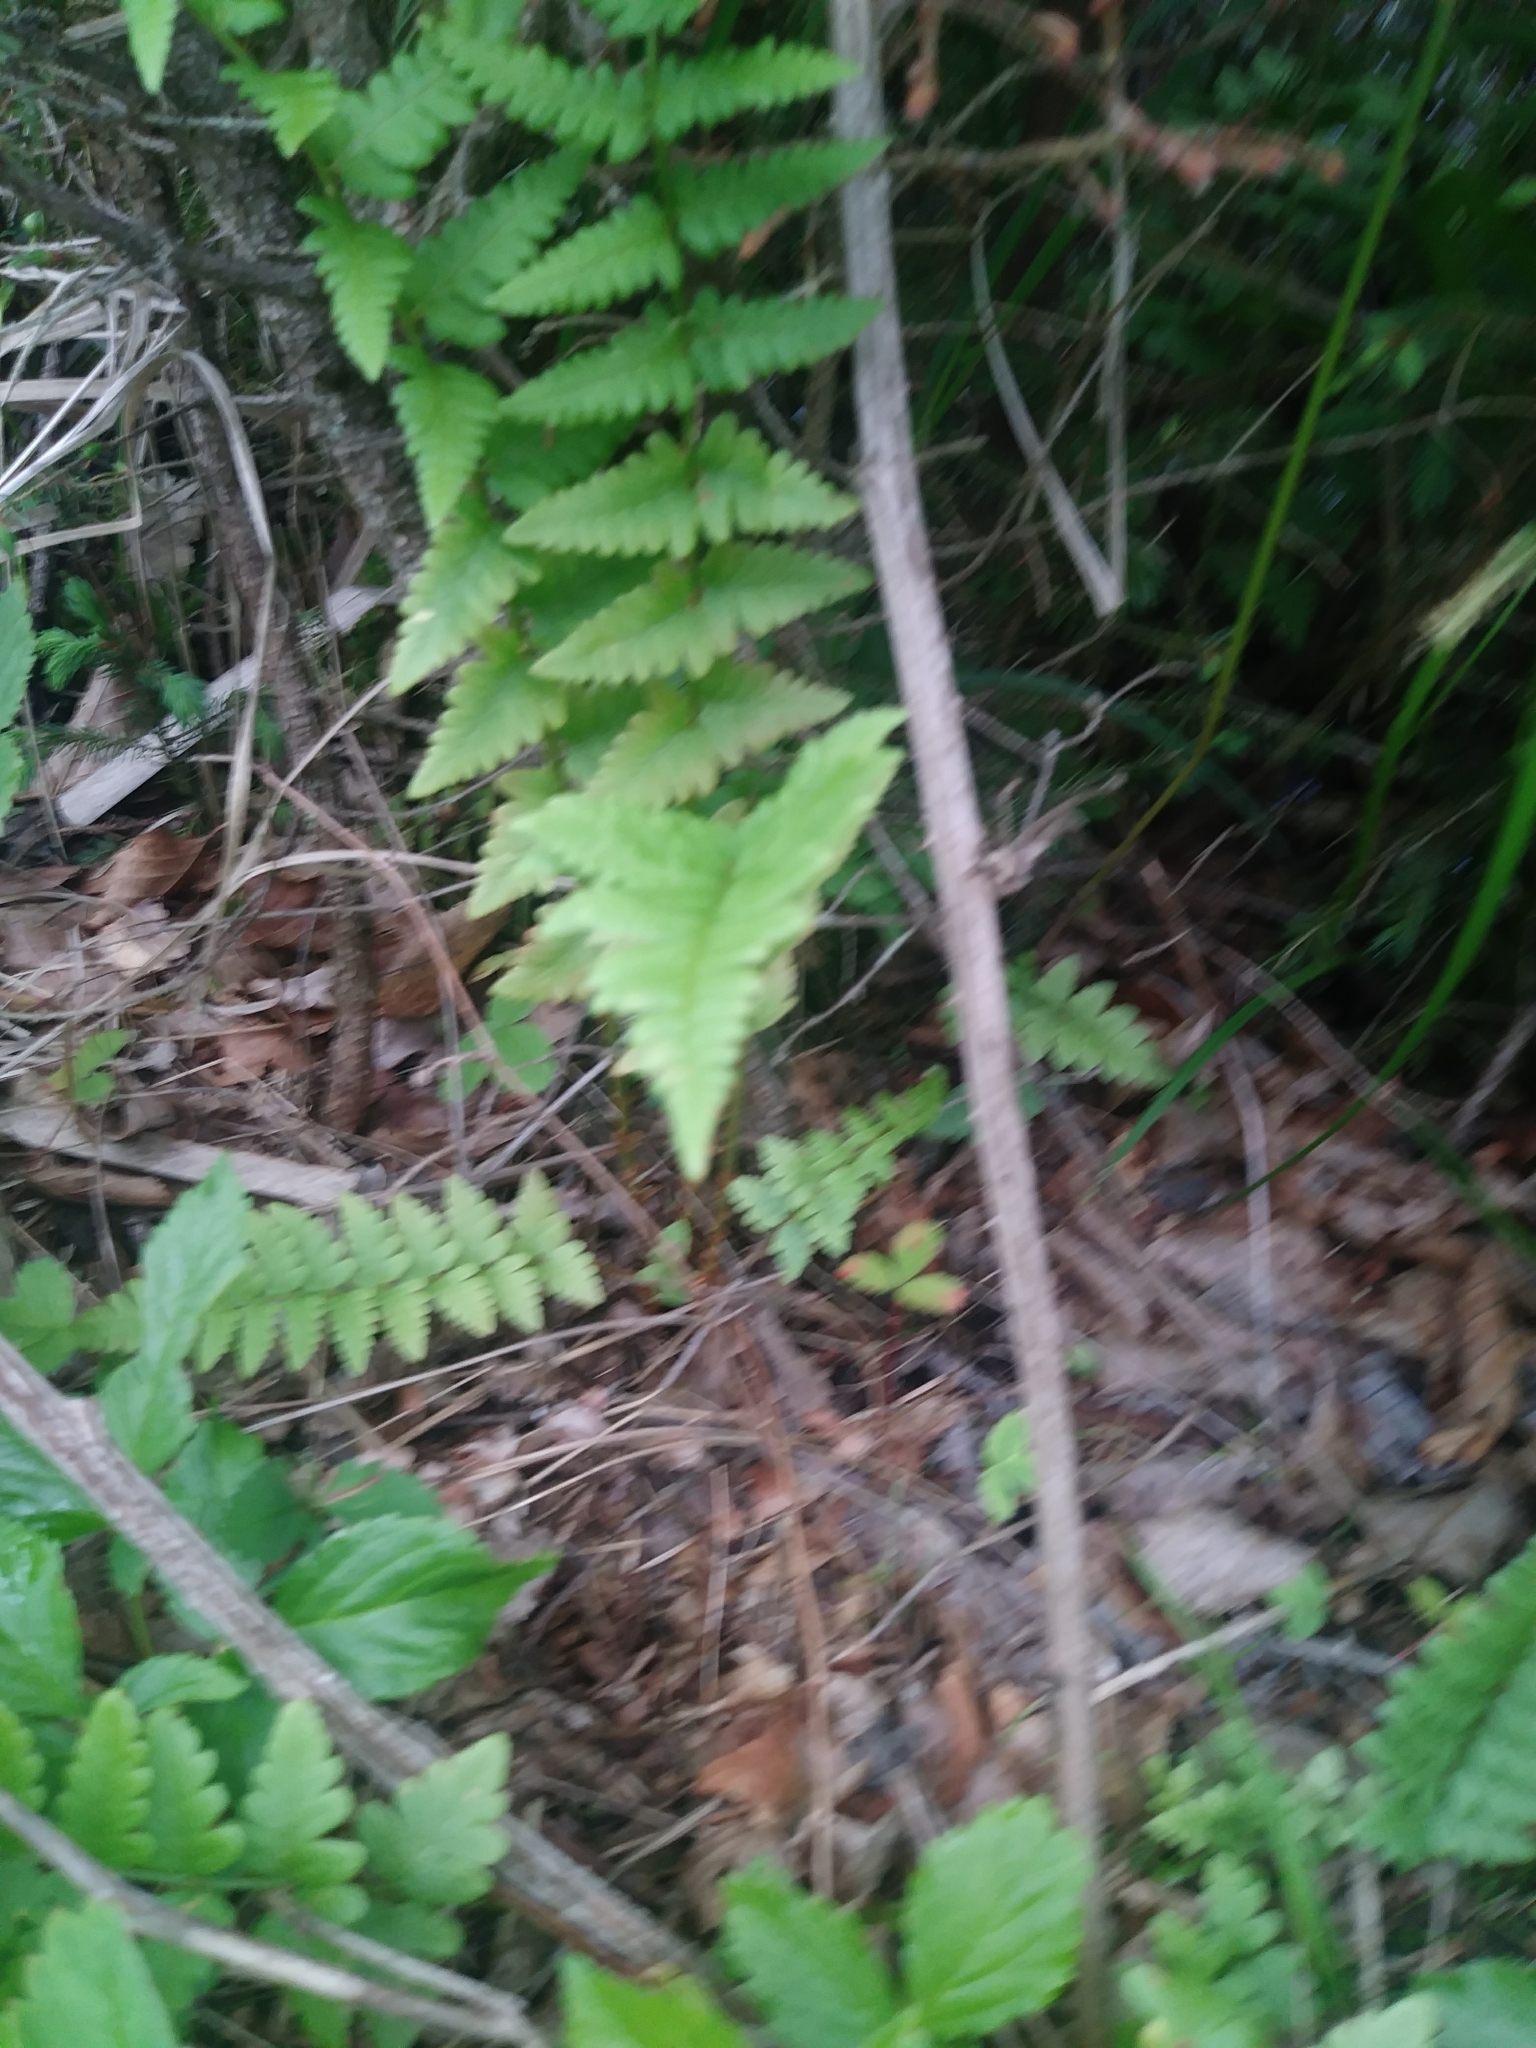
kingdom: Plantae
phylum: Tracheophyta
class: Polypodiopsida
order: Polypodiales
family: Dryopteridaceae
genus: Dryopteris
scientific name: Dryopteris cristata
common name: Crested wood fern
